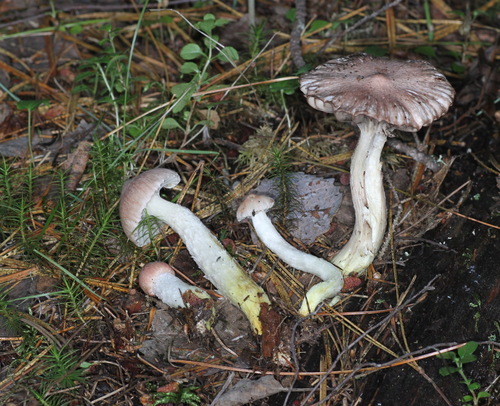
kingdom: Fungi
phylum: Basidiomycota
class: Agaricomycetes
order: Boletales
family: Gomphidiaceae
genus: Gomphidius
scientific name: Gomphidius flavipes
